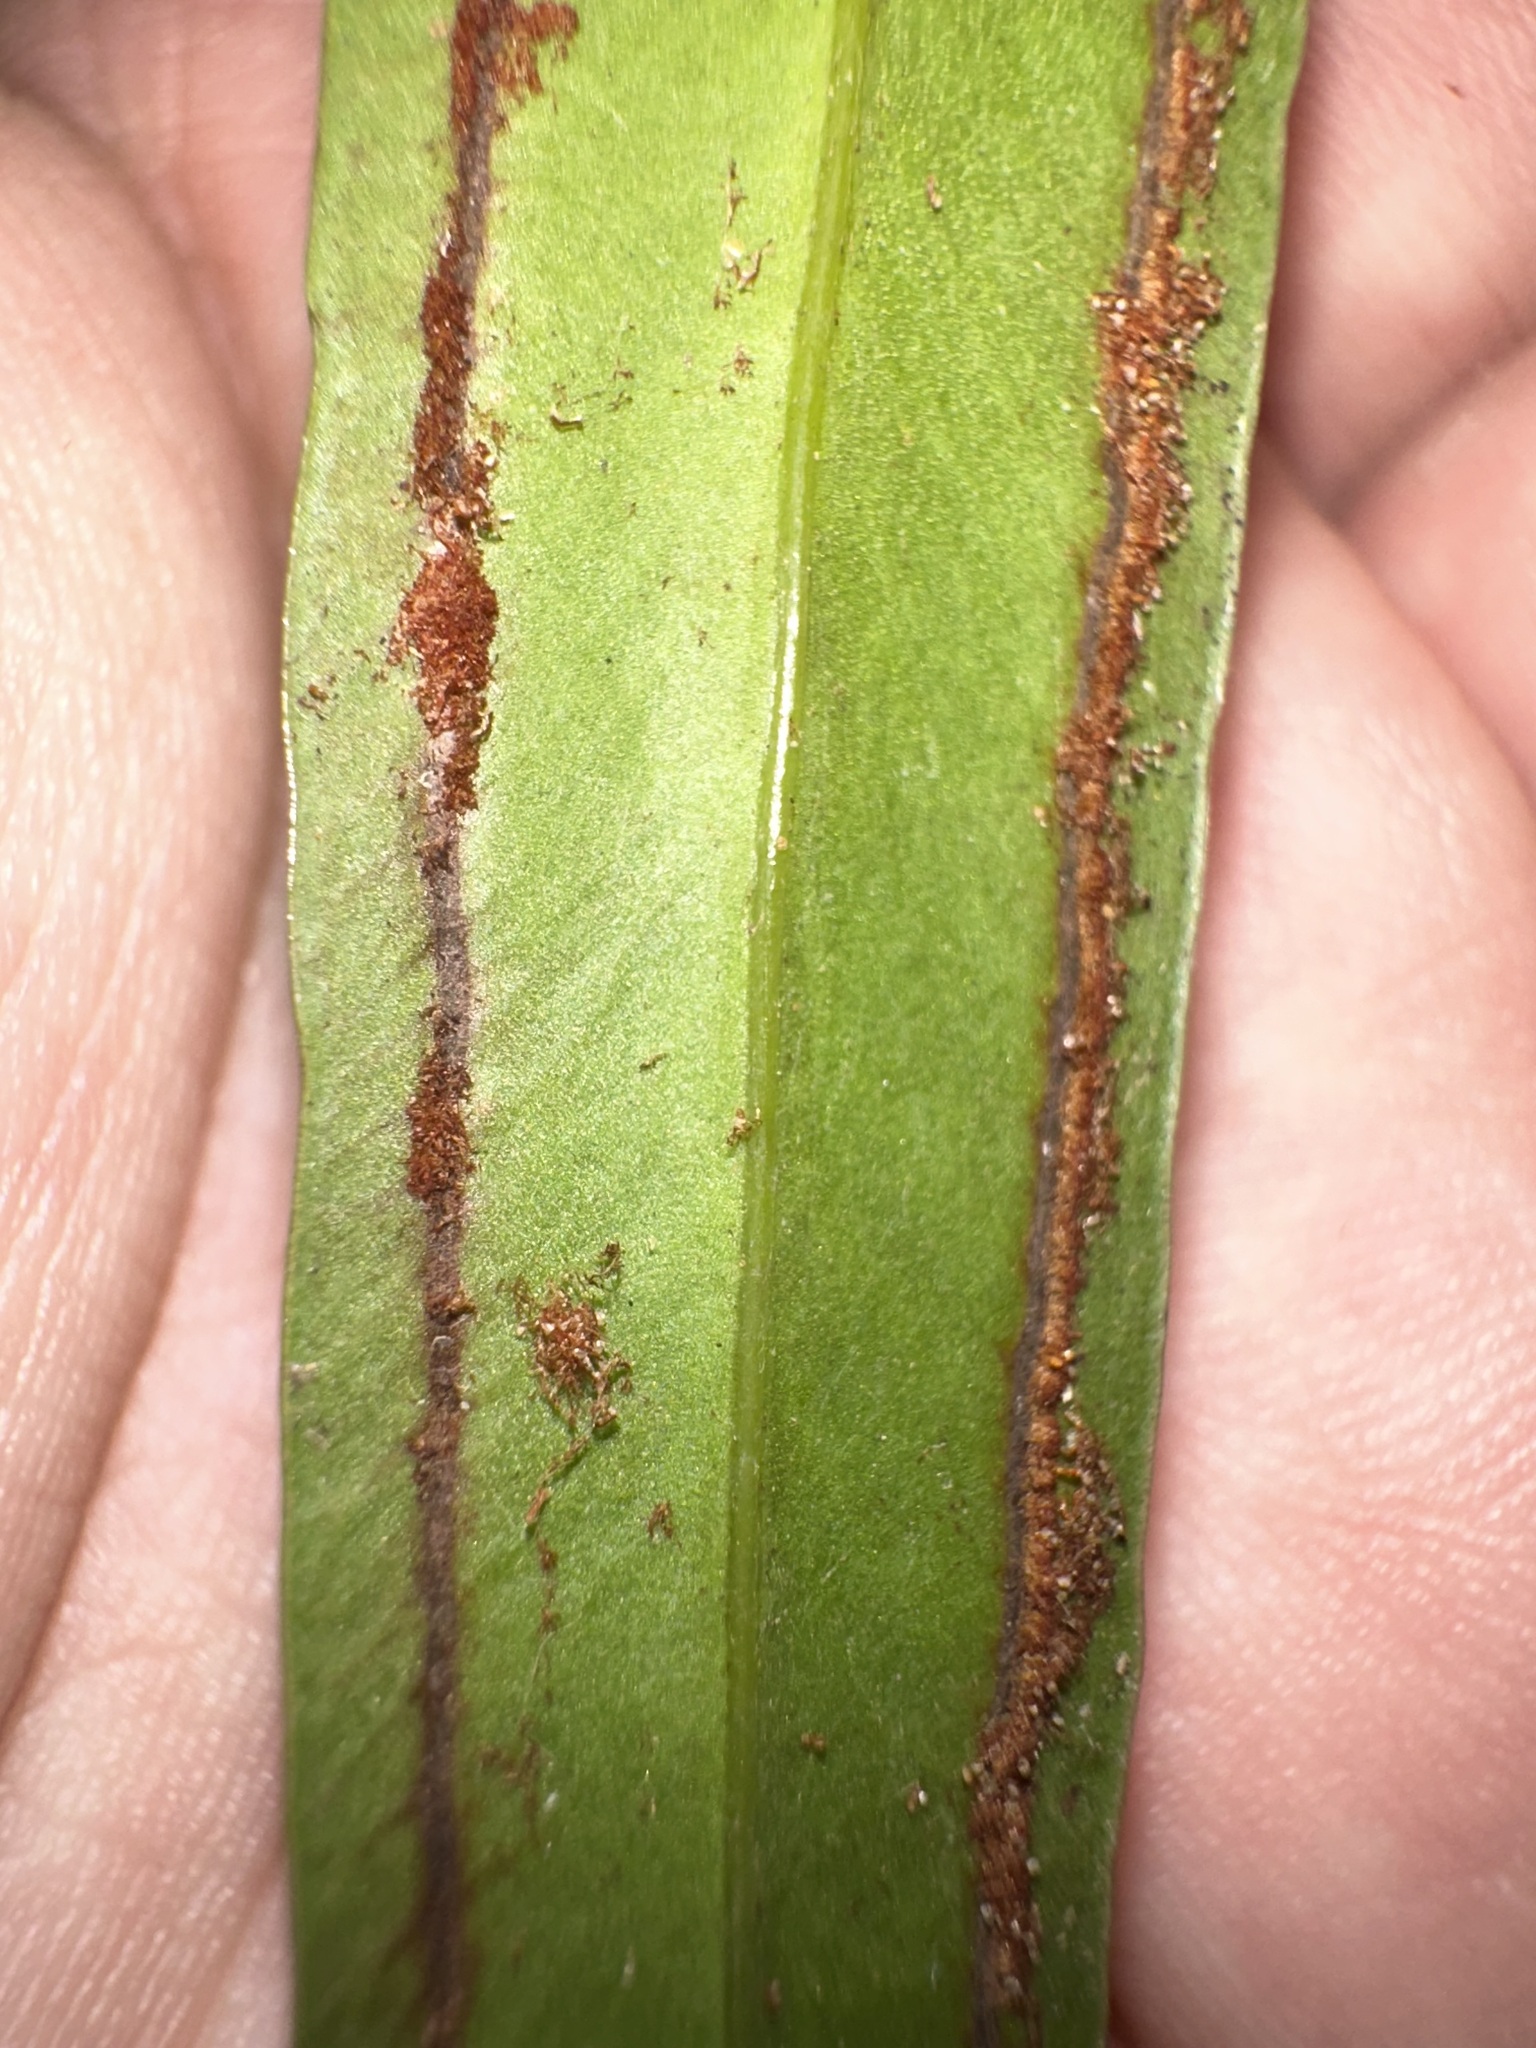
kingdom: Plantae
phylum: Tracheophyta
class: Polypodiopsida
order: Polypodiales
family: Pteridaceae
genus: Taenitis
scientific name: Taenitis blechnoides
